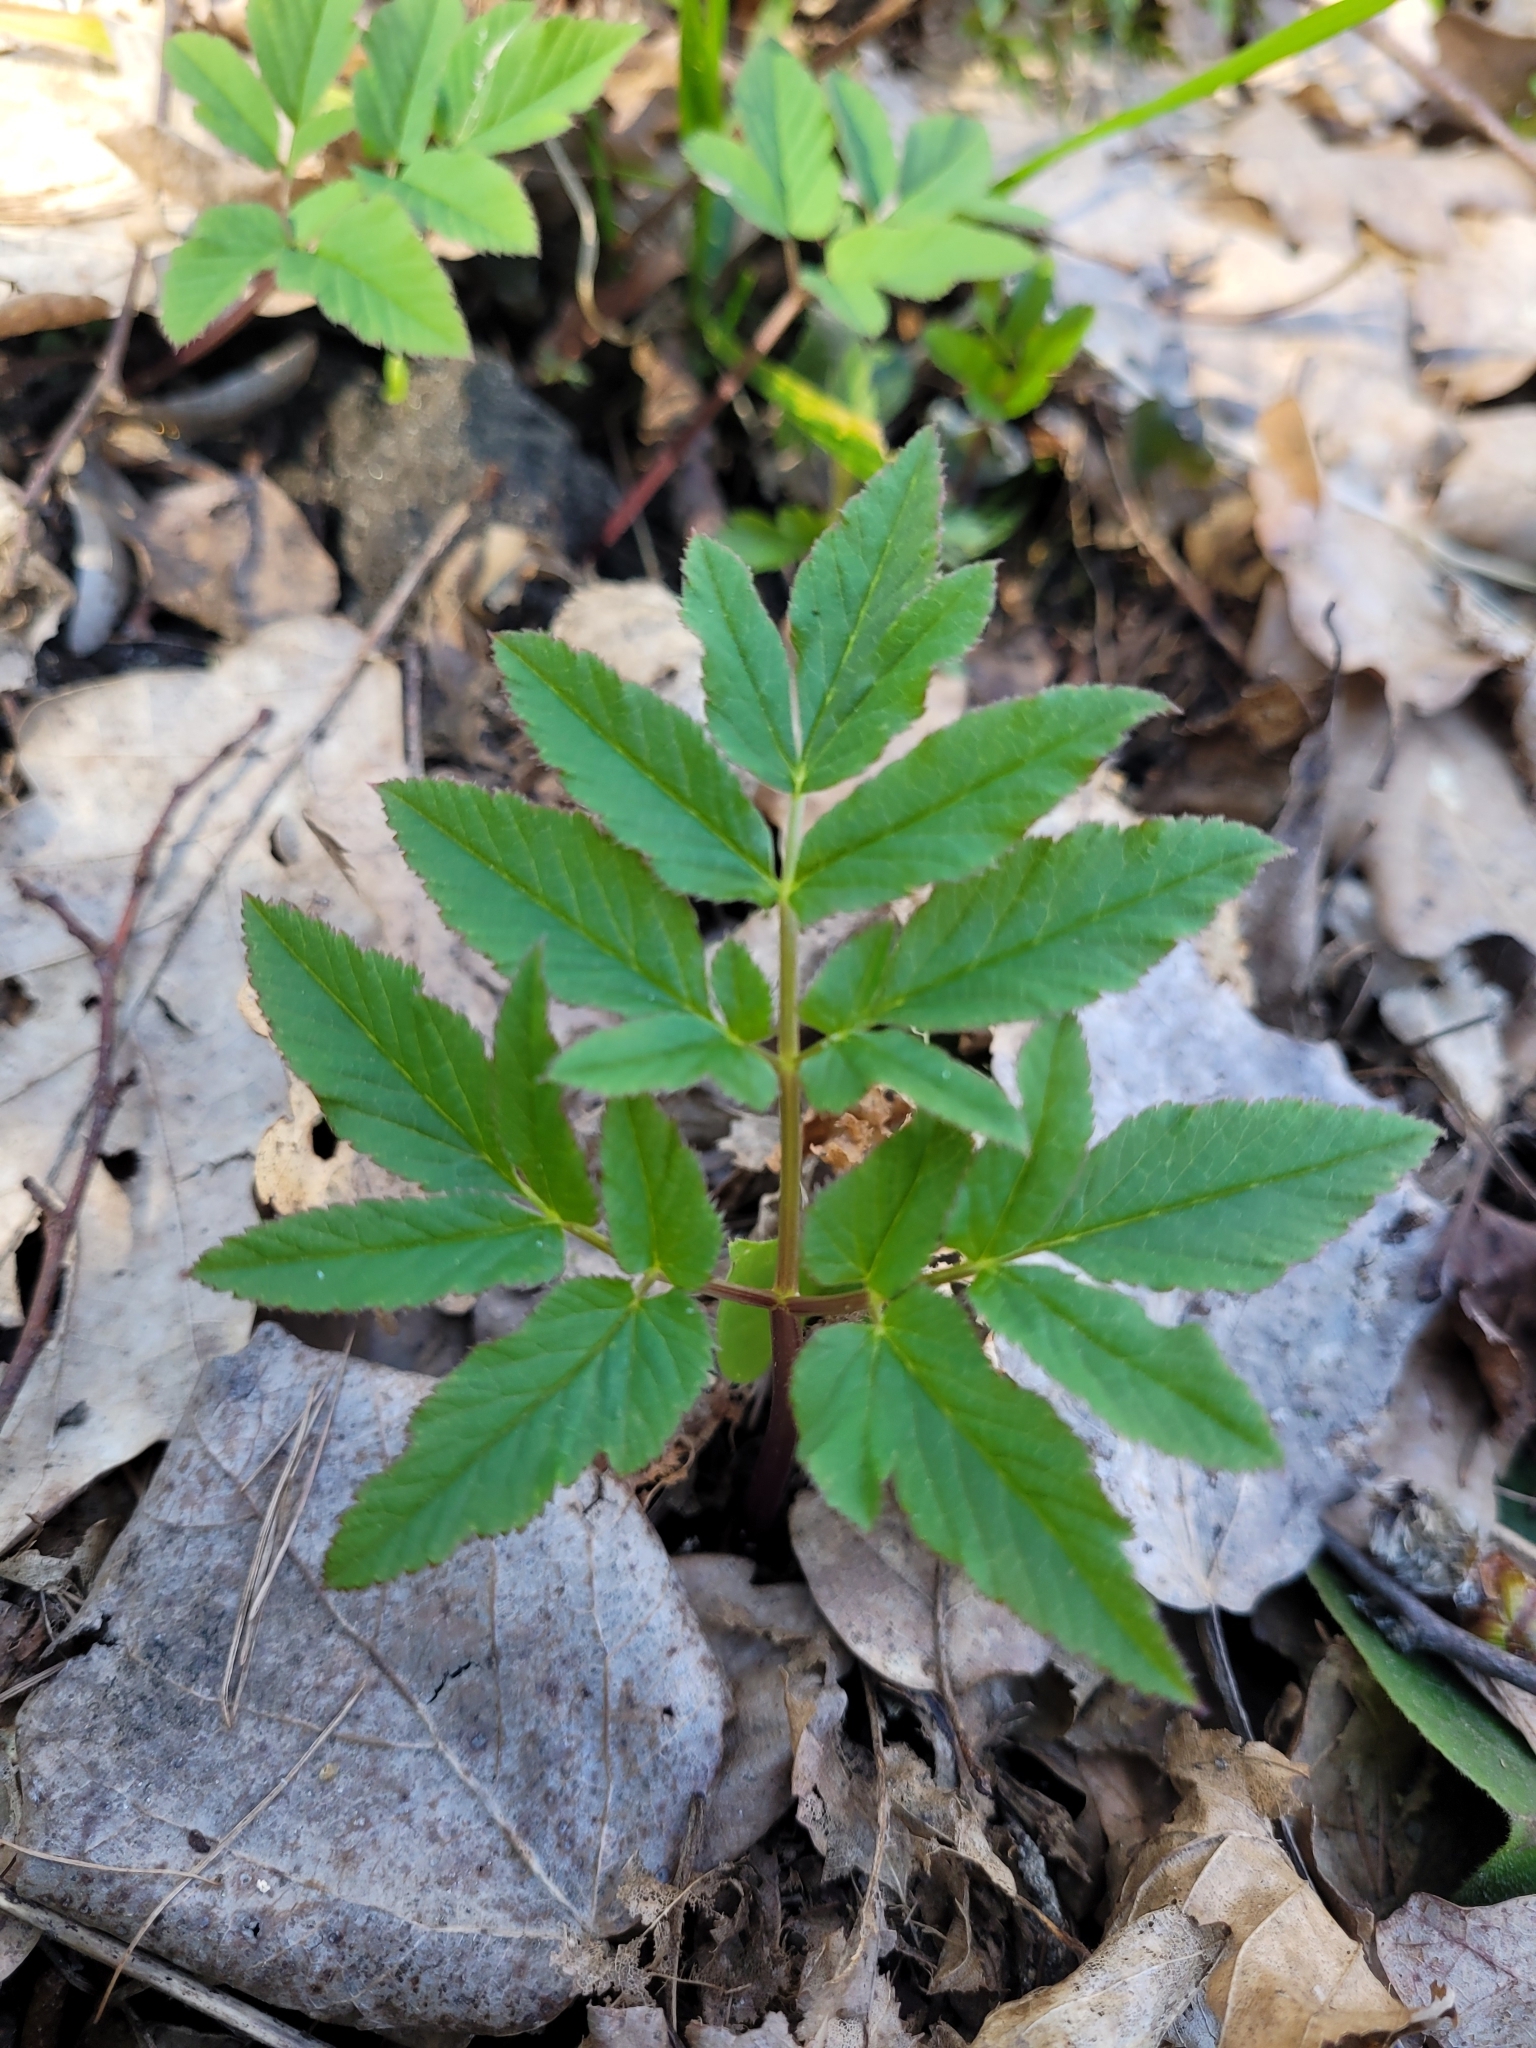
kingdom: Plantae
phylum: Tracheophyta
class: Magnoliopsida
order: Apiales
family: Apiaceae
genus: Aegopodium
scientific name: Aegopodium podagraria
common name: Ground-elder
